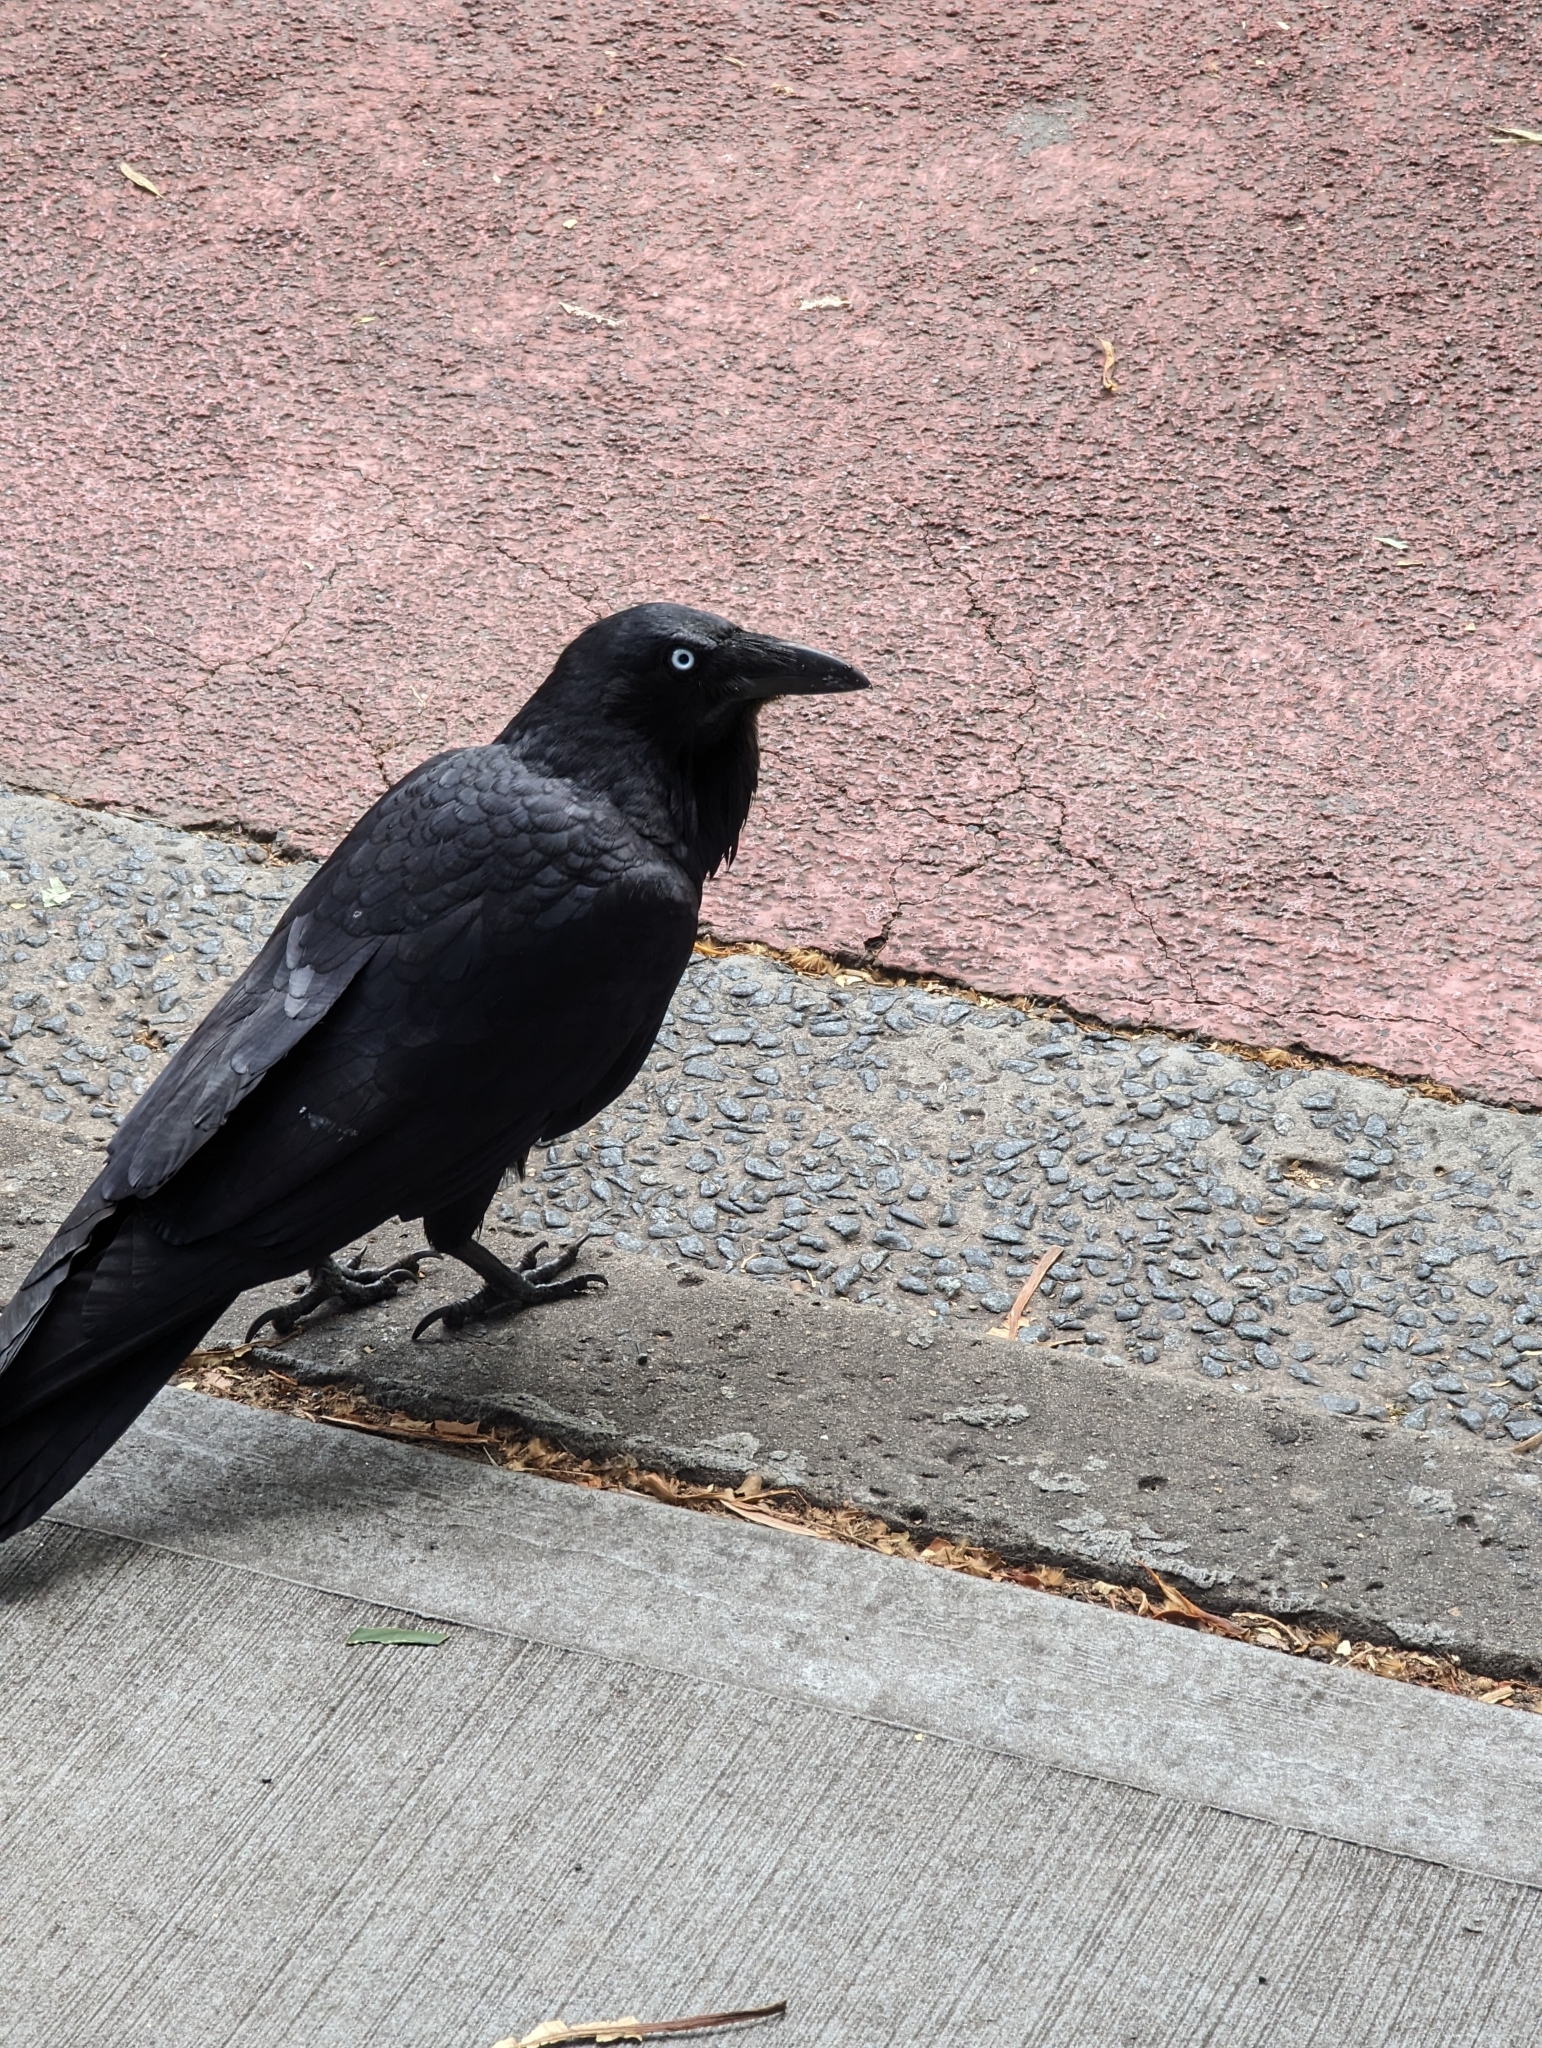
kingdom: Animalia
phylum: Chordata
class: Aves
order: Passeriformes
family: Corvidae
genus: Corvus
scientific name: Corvus coronoides
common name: Australian raven
